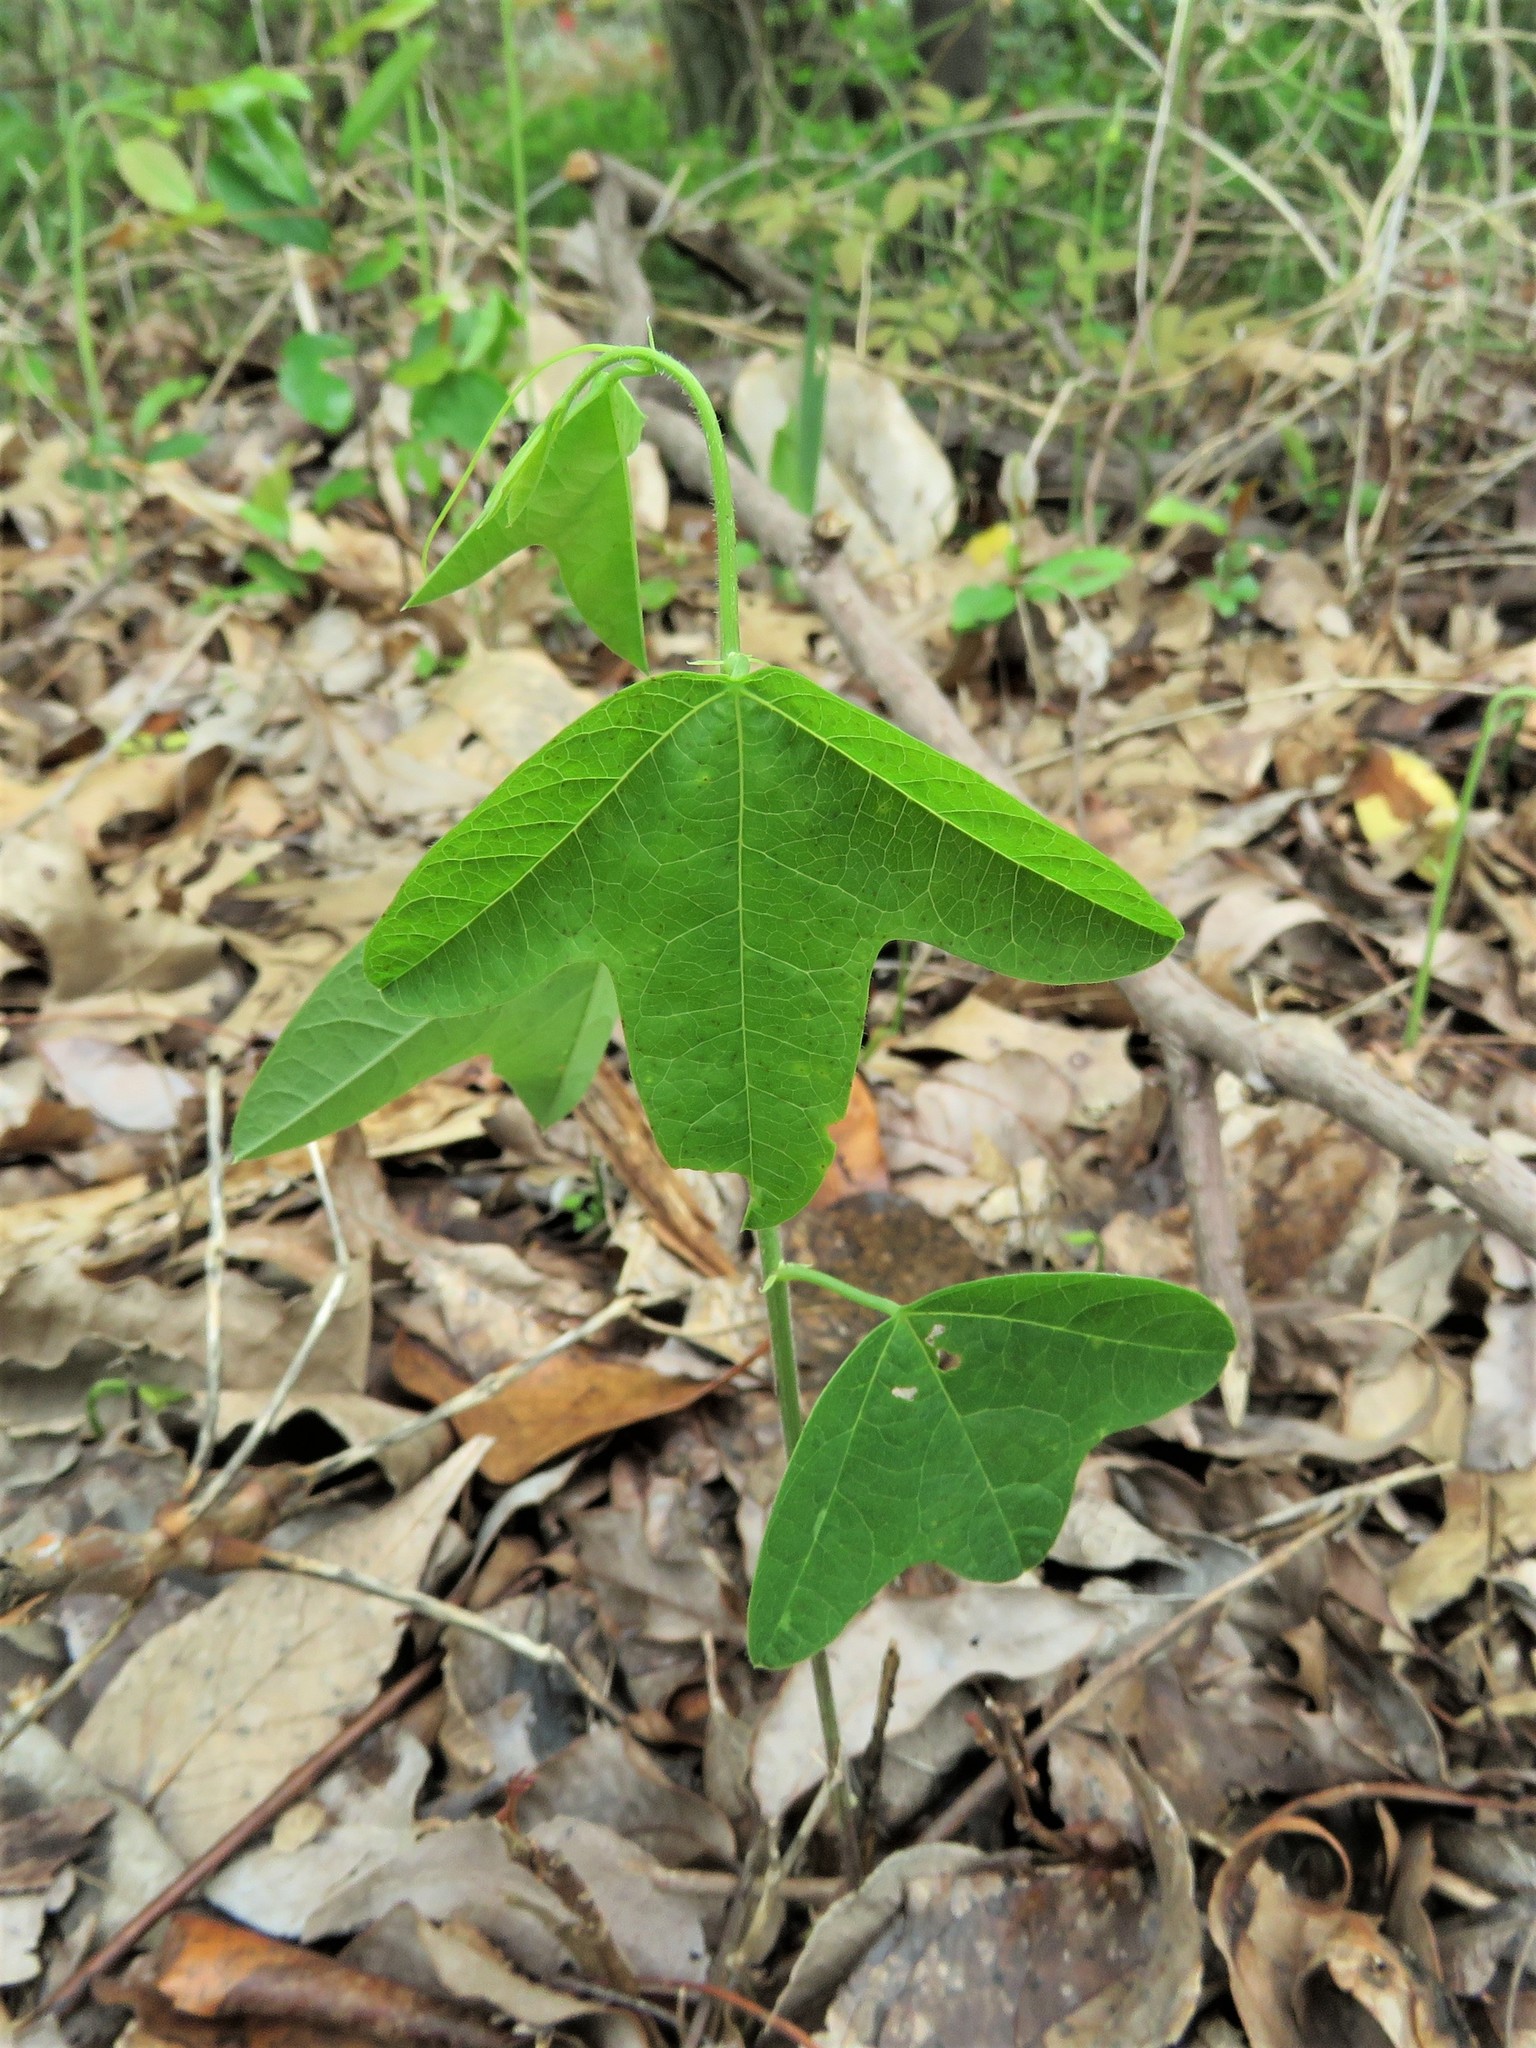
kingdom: Plantae
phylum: Tracheophyta
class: Magnoliopsida
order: Malpighiales
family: Passifloraceae
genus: Passiflora
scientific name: Passiflora lutea
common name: Yellow passionflower
